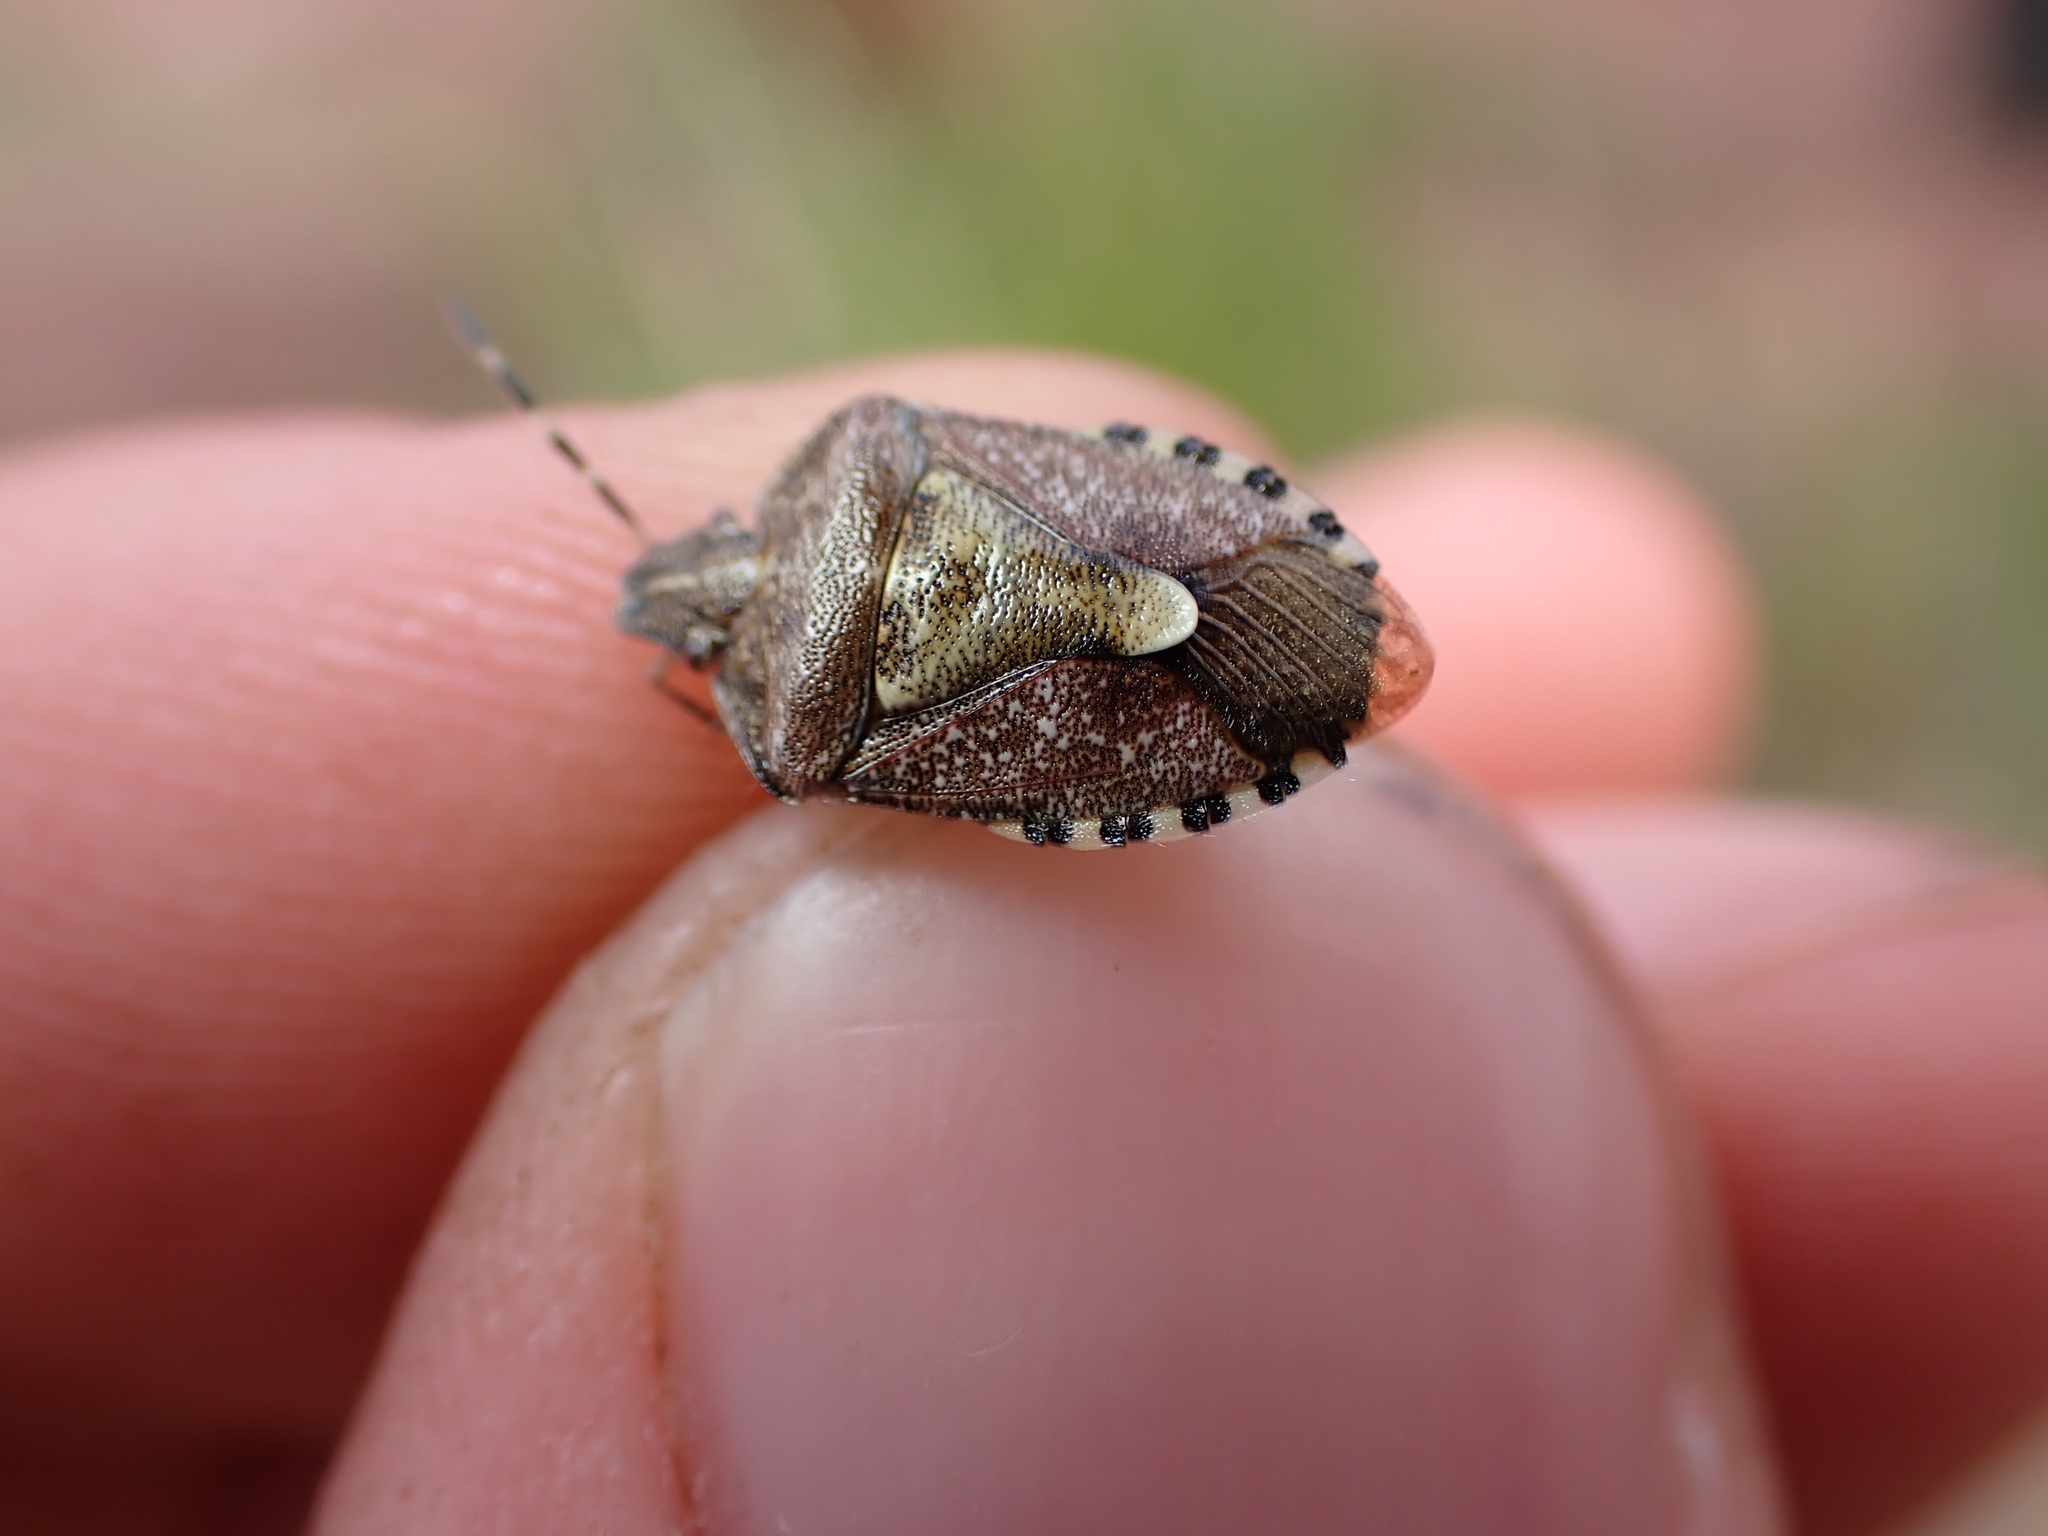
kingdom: Animalia
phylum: Arthropoda
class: Insecta
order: Hemiptera
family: Pentatomidae
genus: Dolycoris
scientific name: Dolycoris baccarum
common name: Sloe bug
